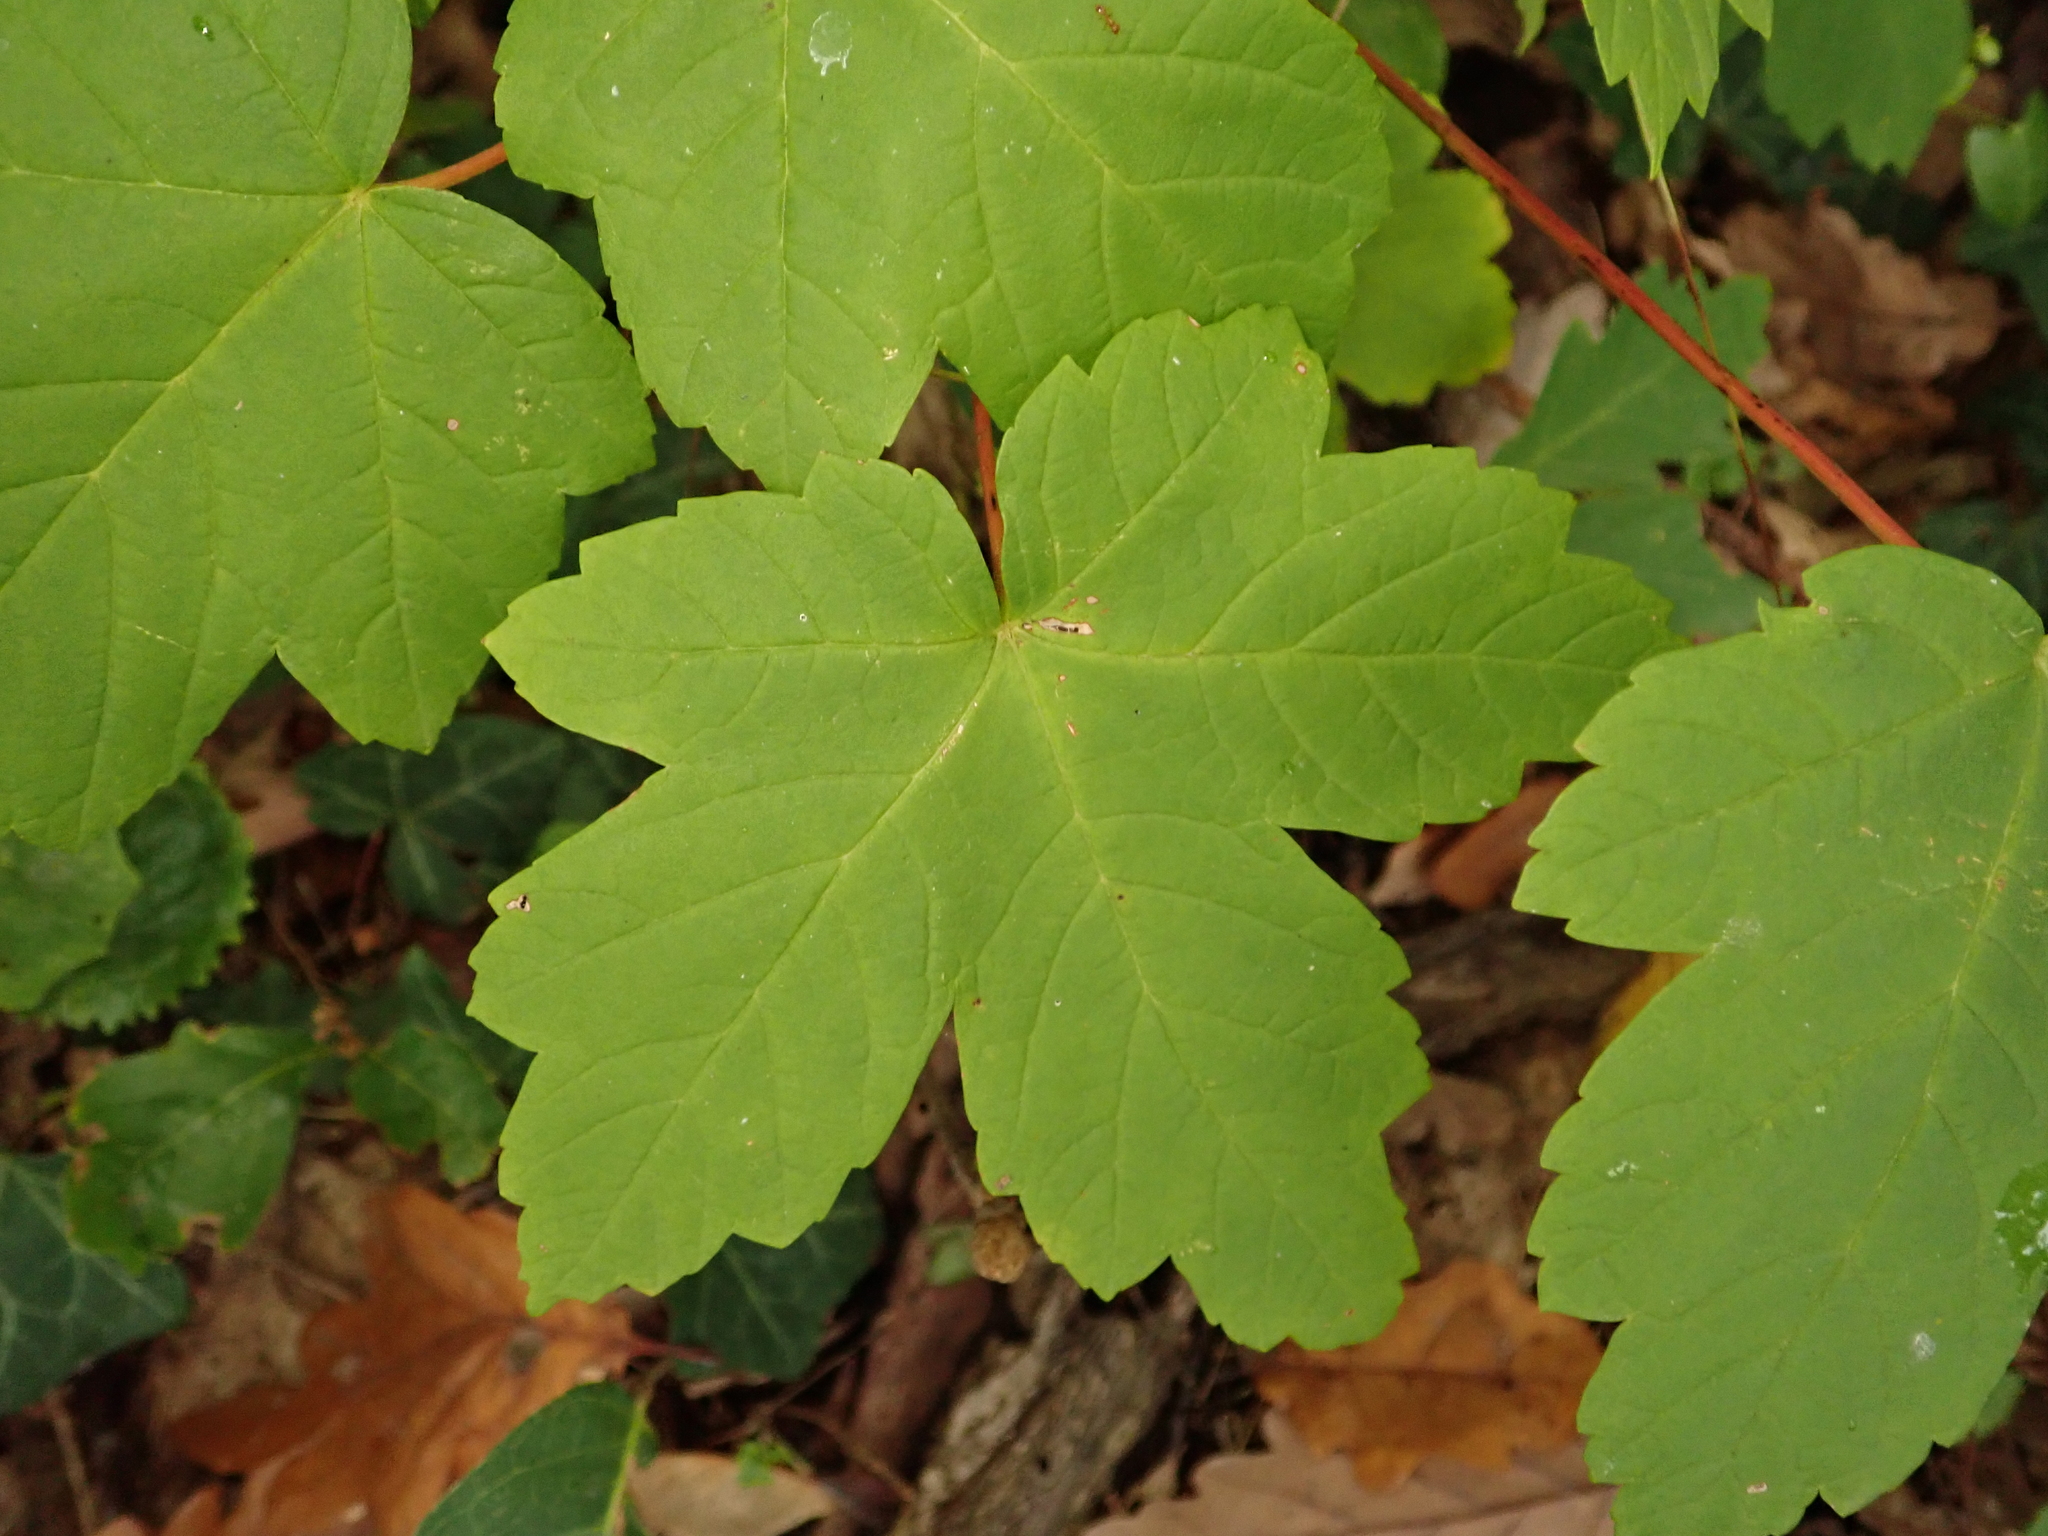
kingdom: Plantae
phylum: Tracheophyta
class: Magnoliopsida
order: Sapindales
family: Sapindaceae
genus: Acer
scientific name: Acer pseudoplatanus
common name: Sycamore
